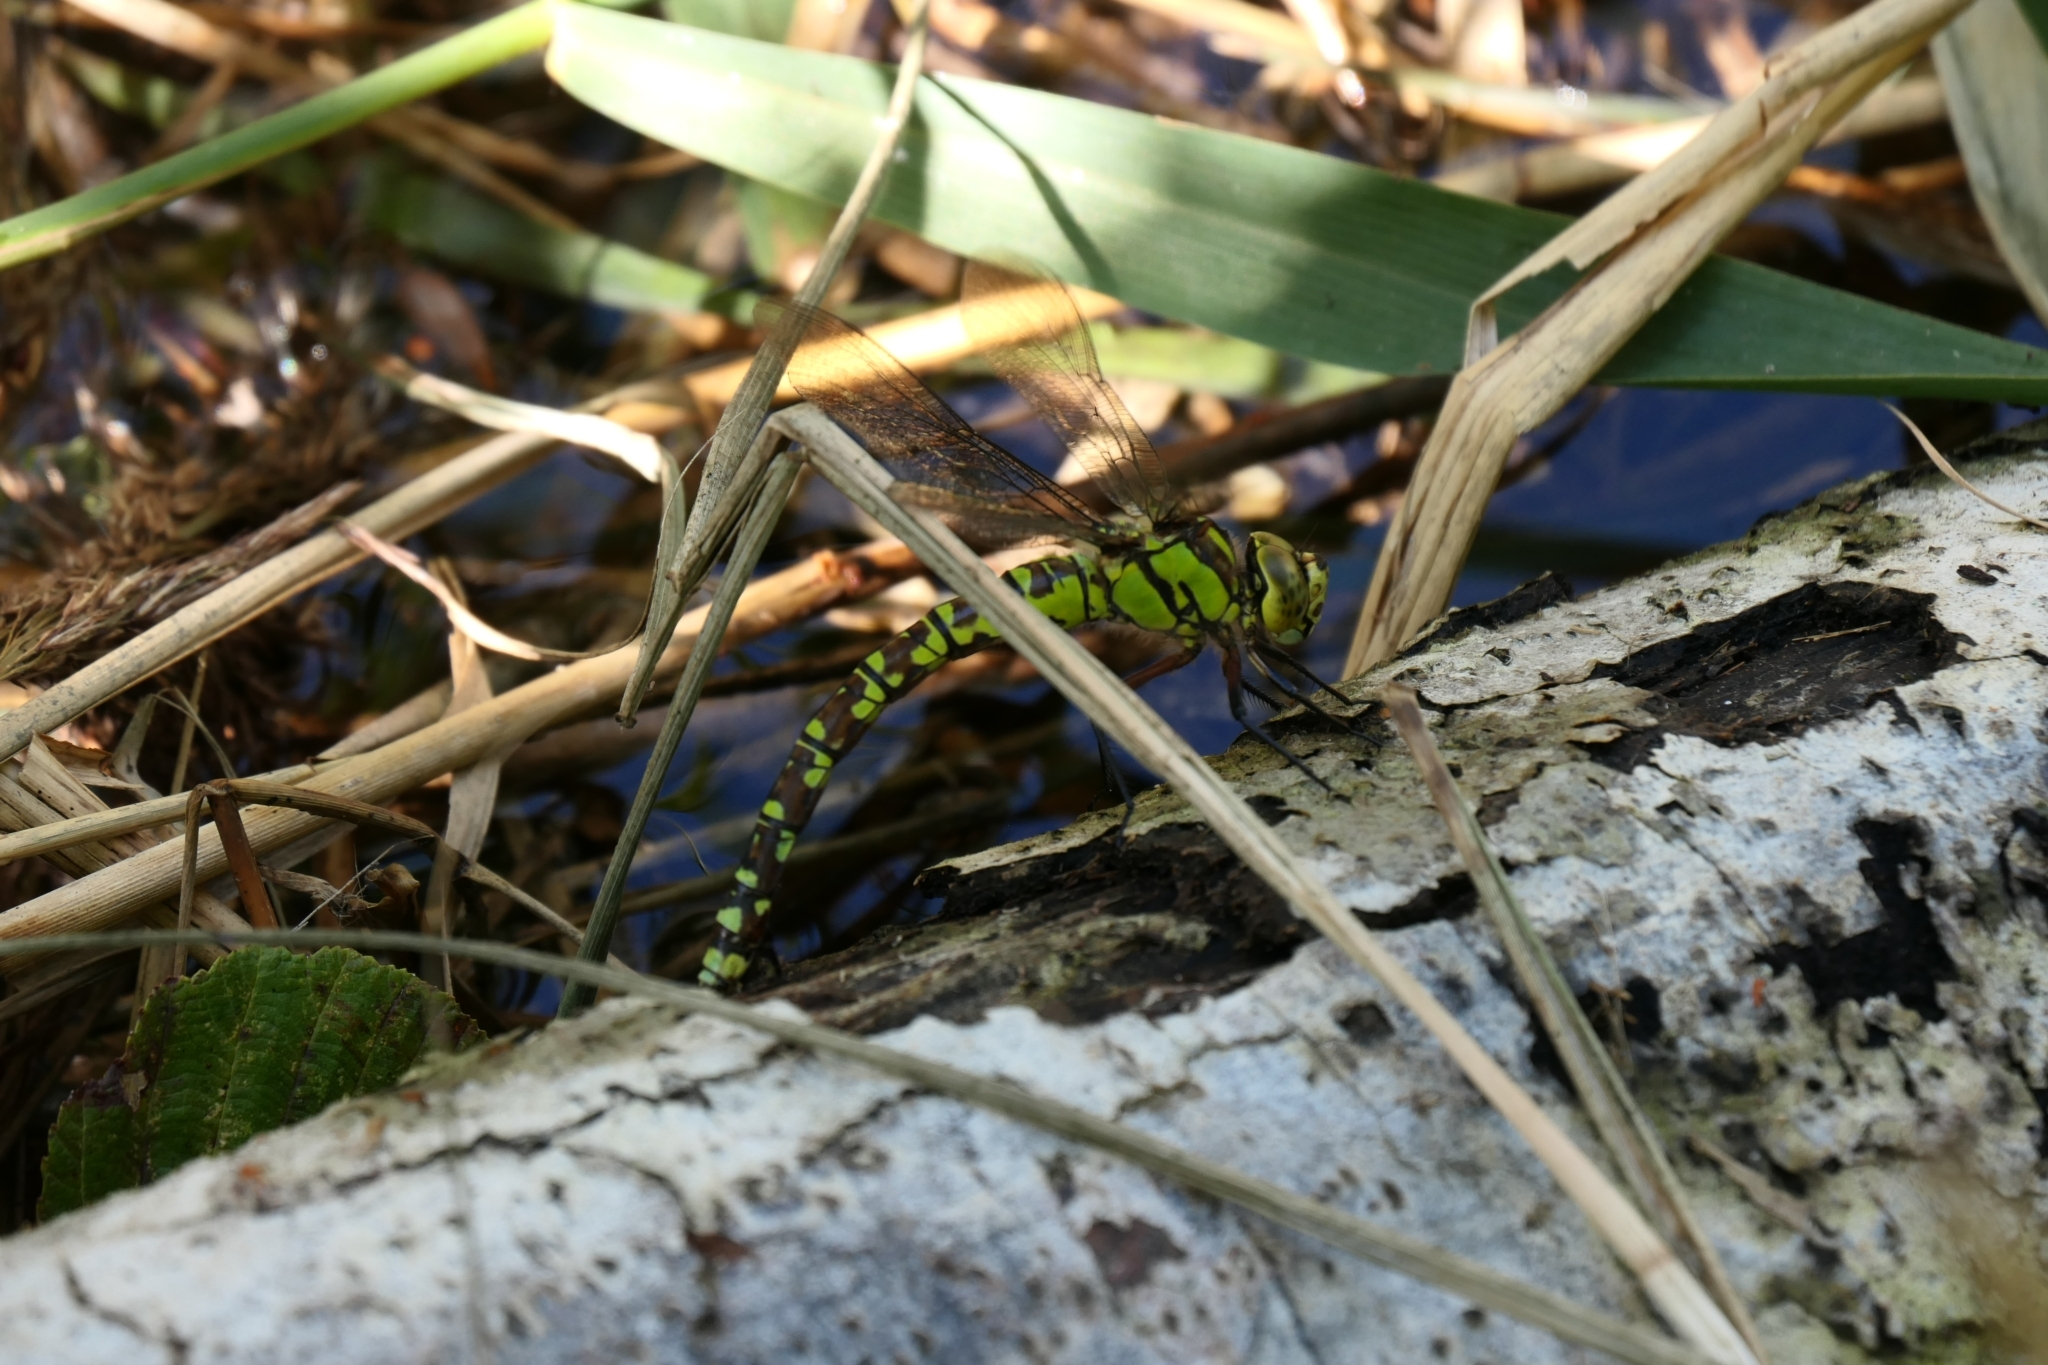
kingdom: Animalia
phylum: Arthropoda
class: Insecta
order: Odonata
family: Aeshnidae
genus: Aeshna
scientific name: Aeshna cyanea
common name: Southern hawker
